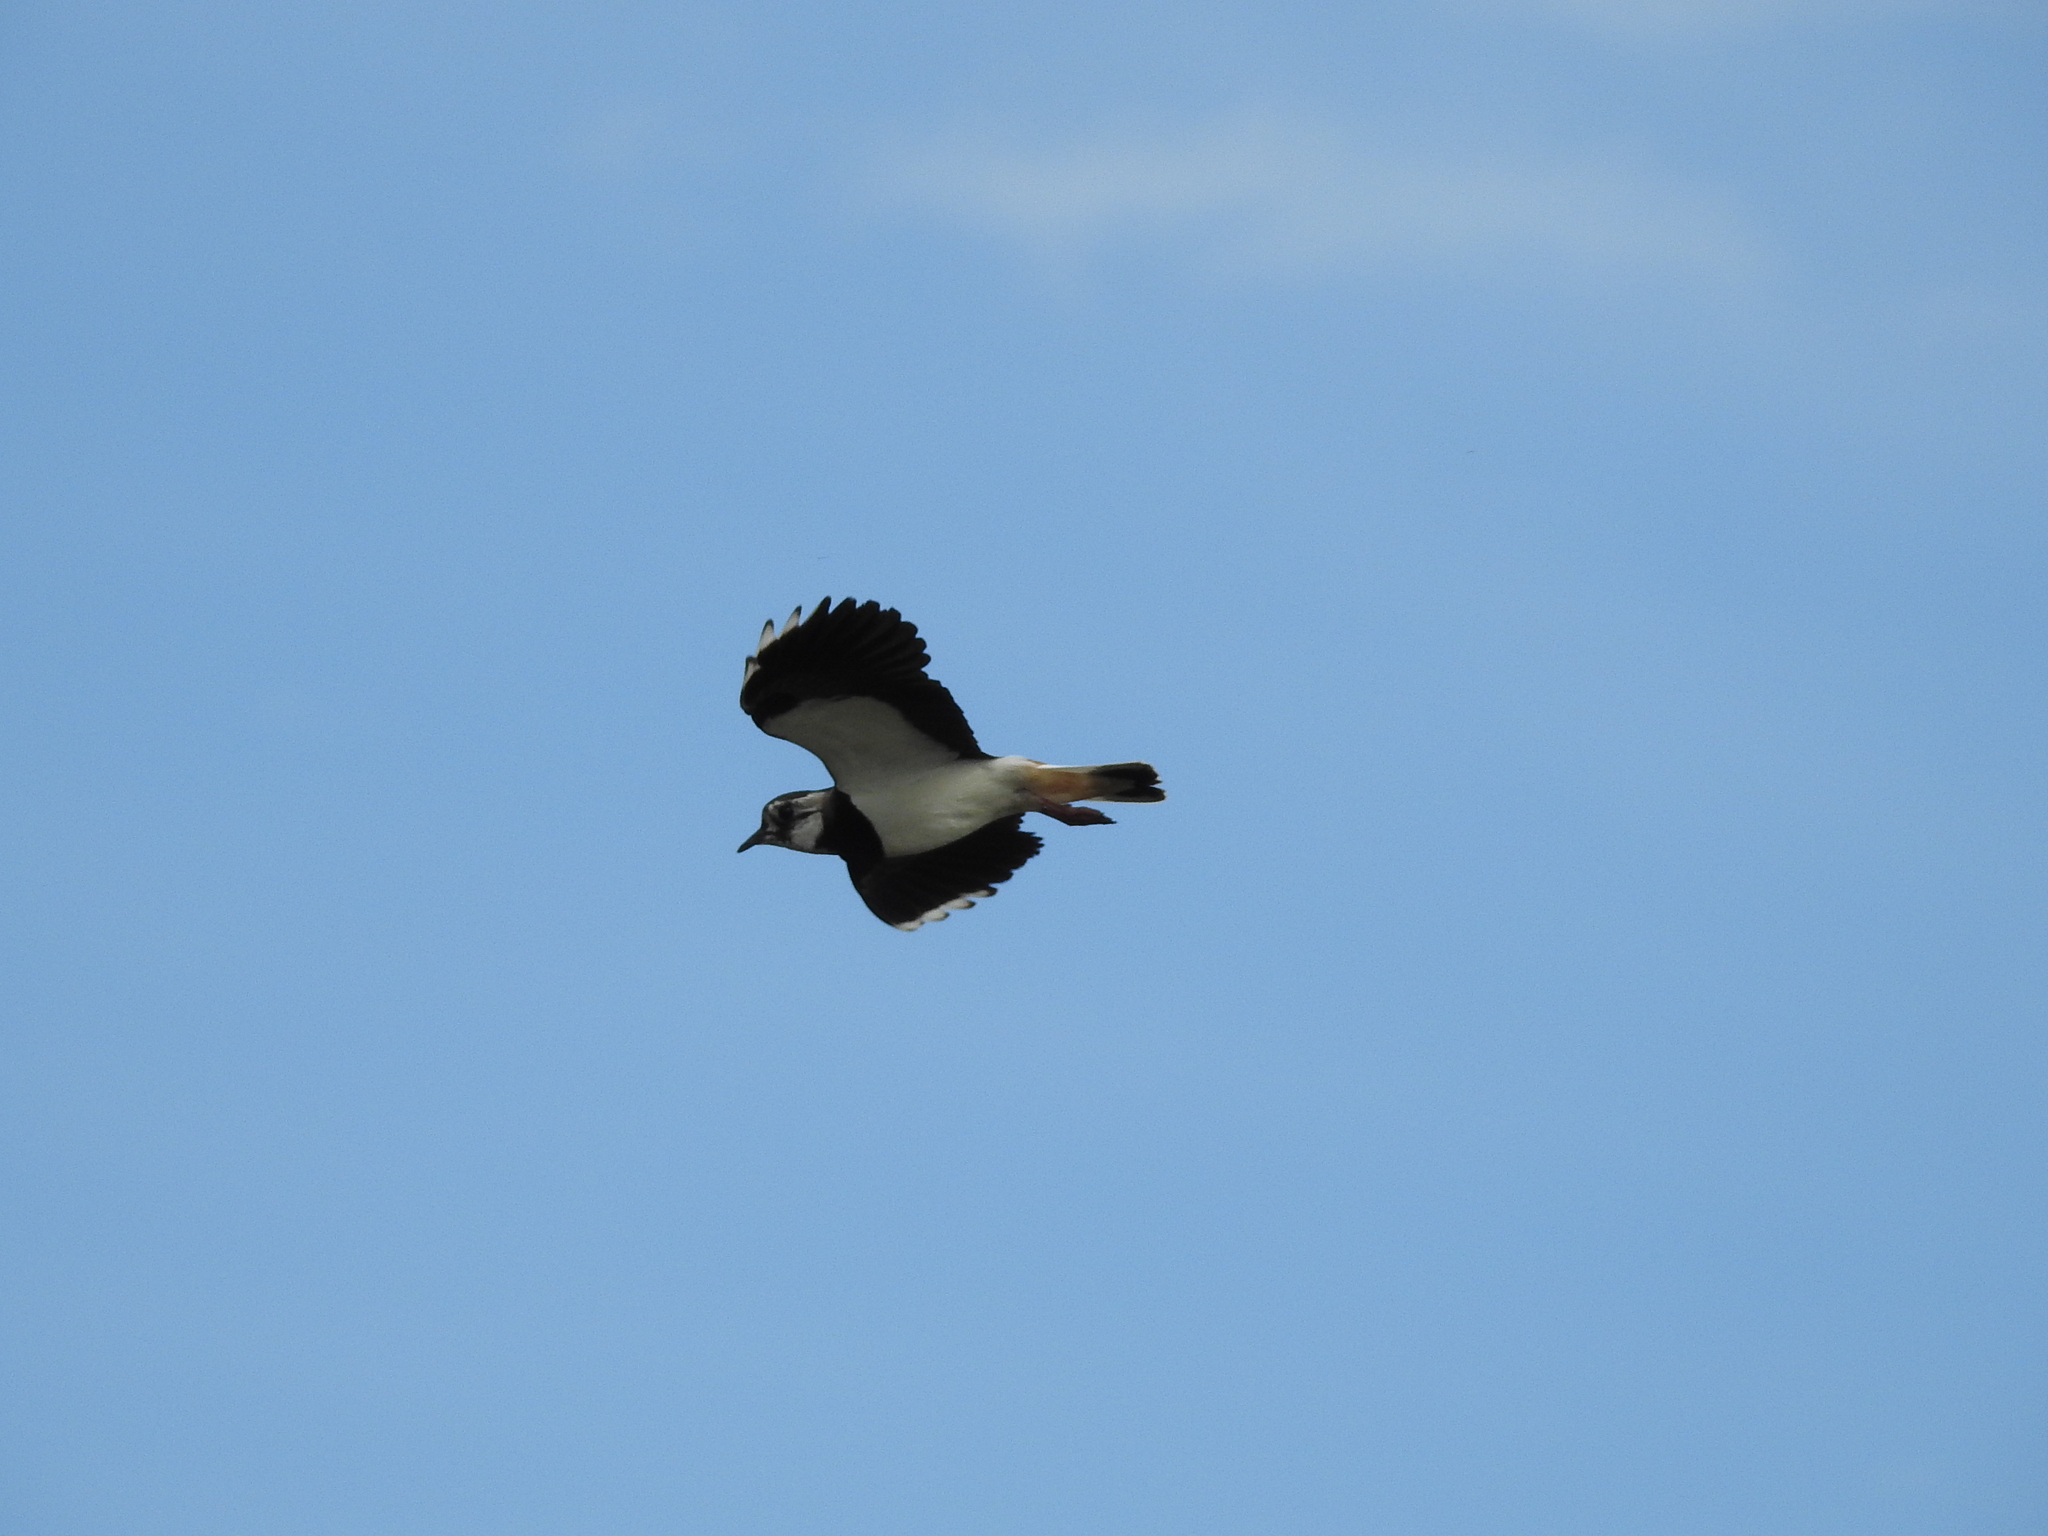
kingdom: Animalia
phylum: Chordata
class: Aves
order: Charadriiformes
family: Charadriidae
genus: Vanellus
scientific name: Vanellus vanellus
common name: Northern lapwing
